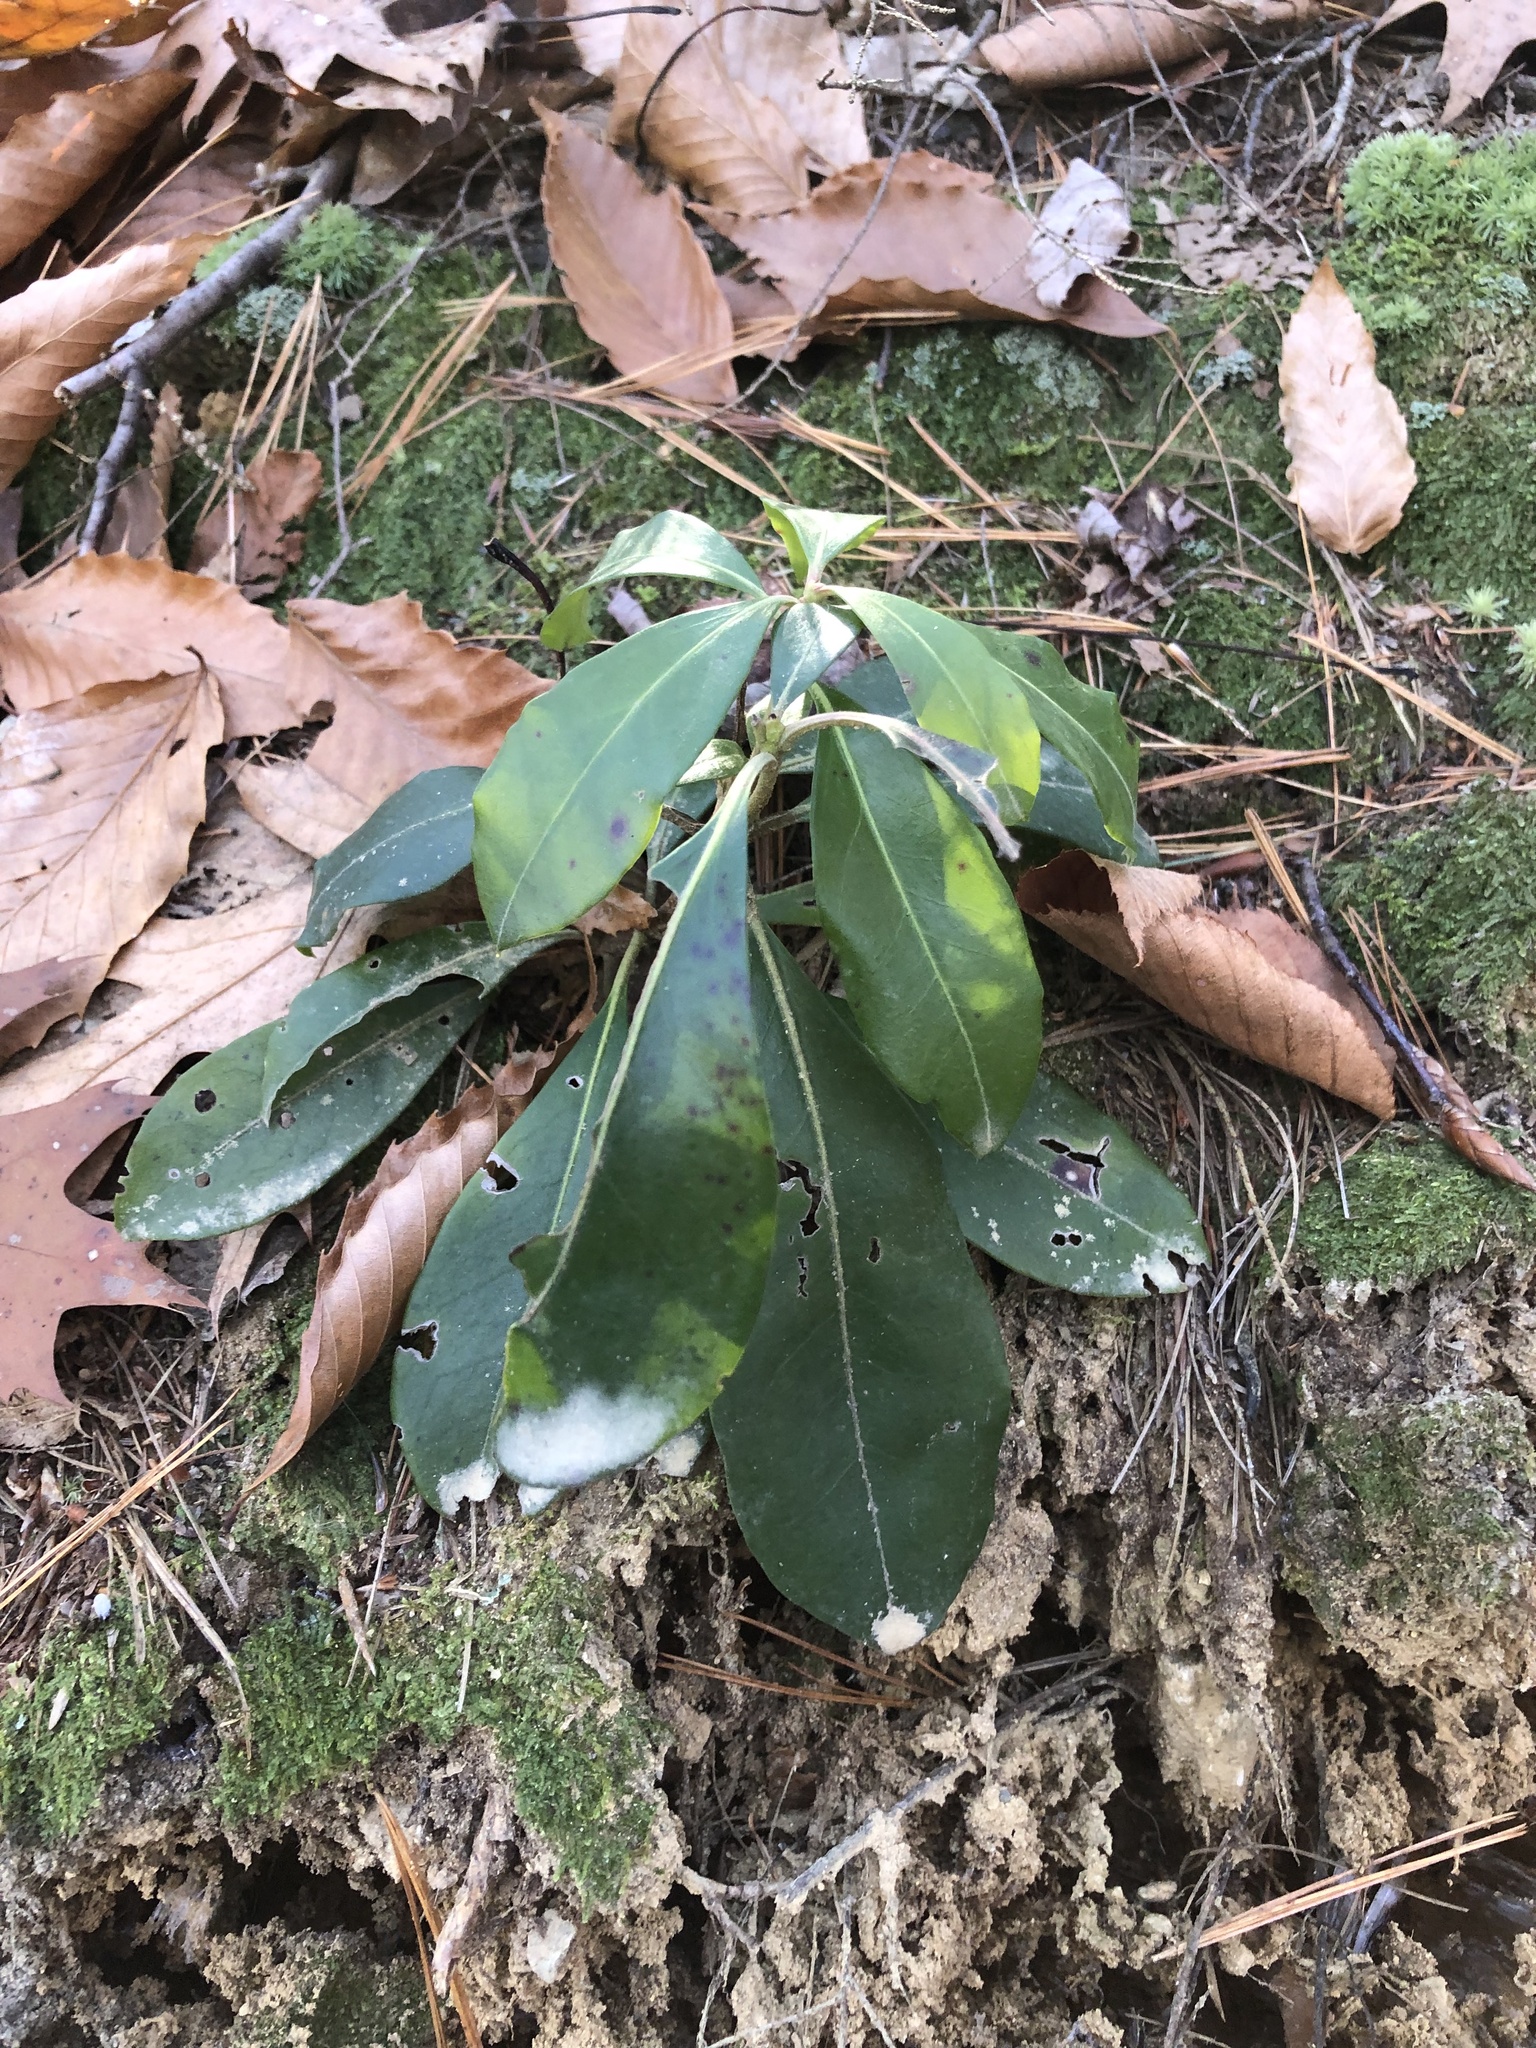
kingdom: Plantae
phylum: Tracheophyta
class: Magnoliopsida
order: Ericales
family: Ericaceae
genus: Kalmia
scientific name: Kalmia latifolia
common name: Mountain-laurel
